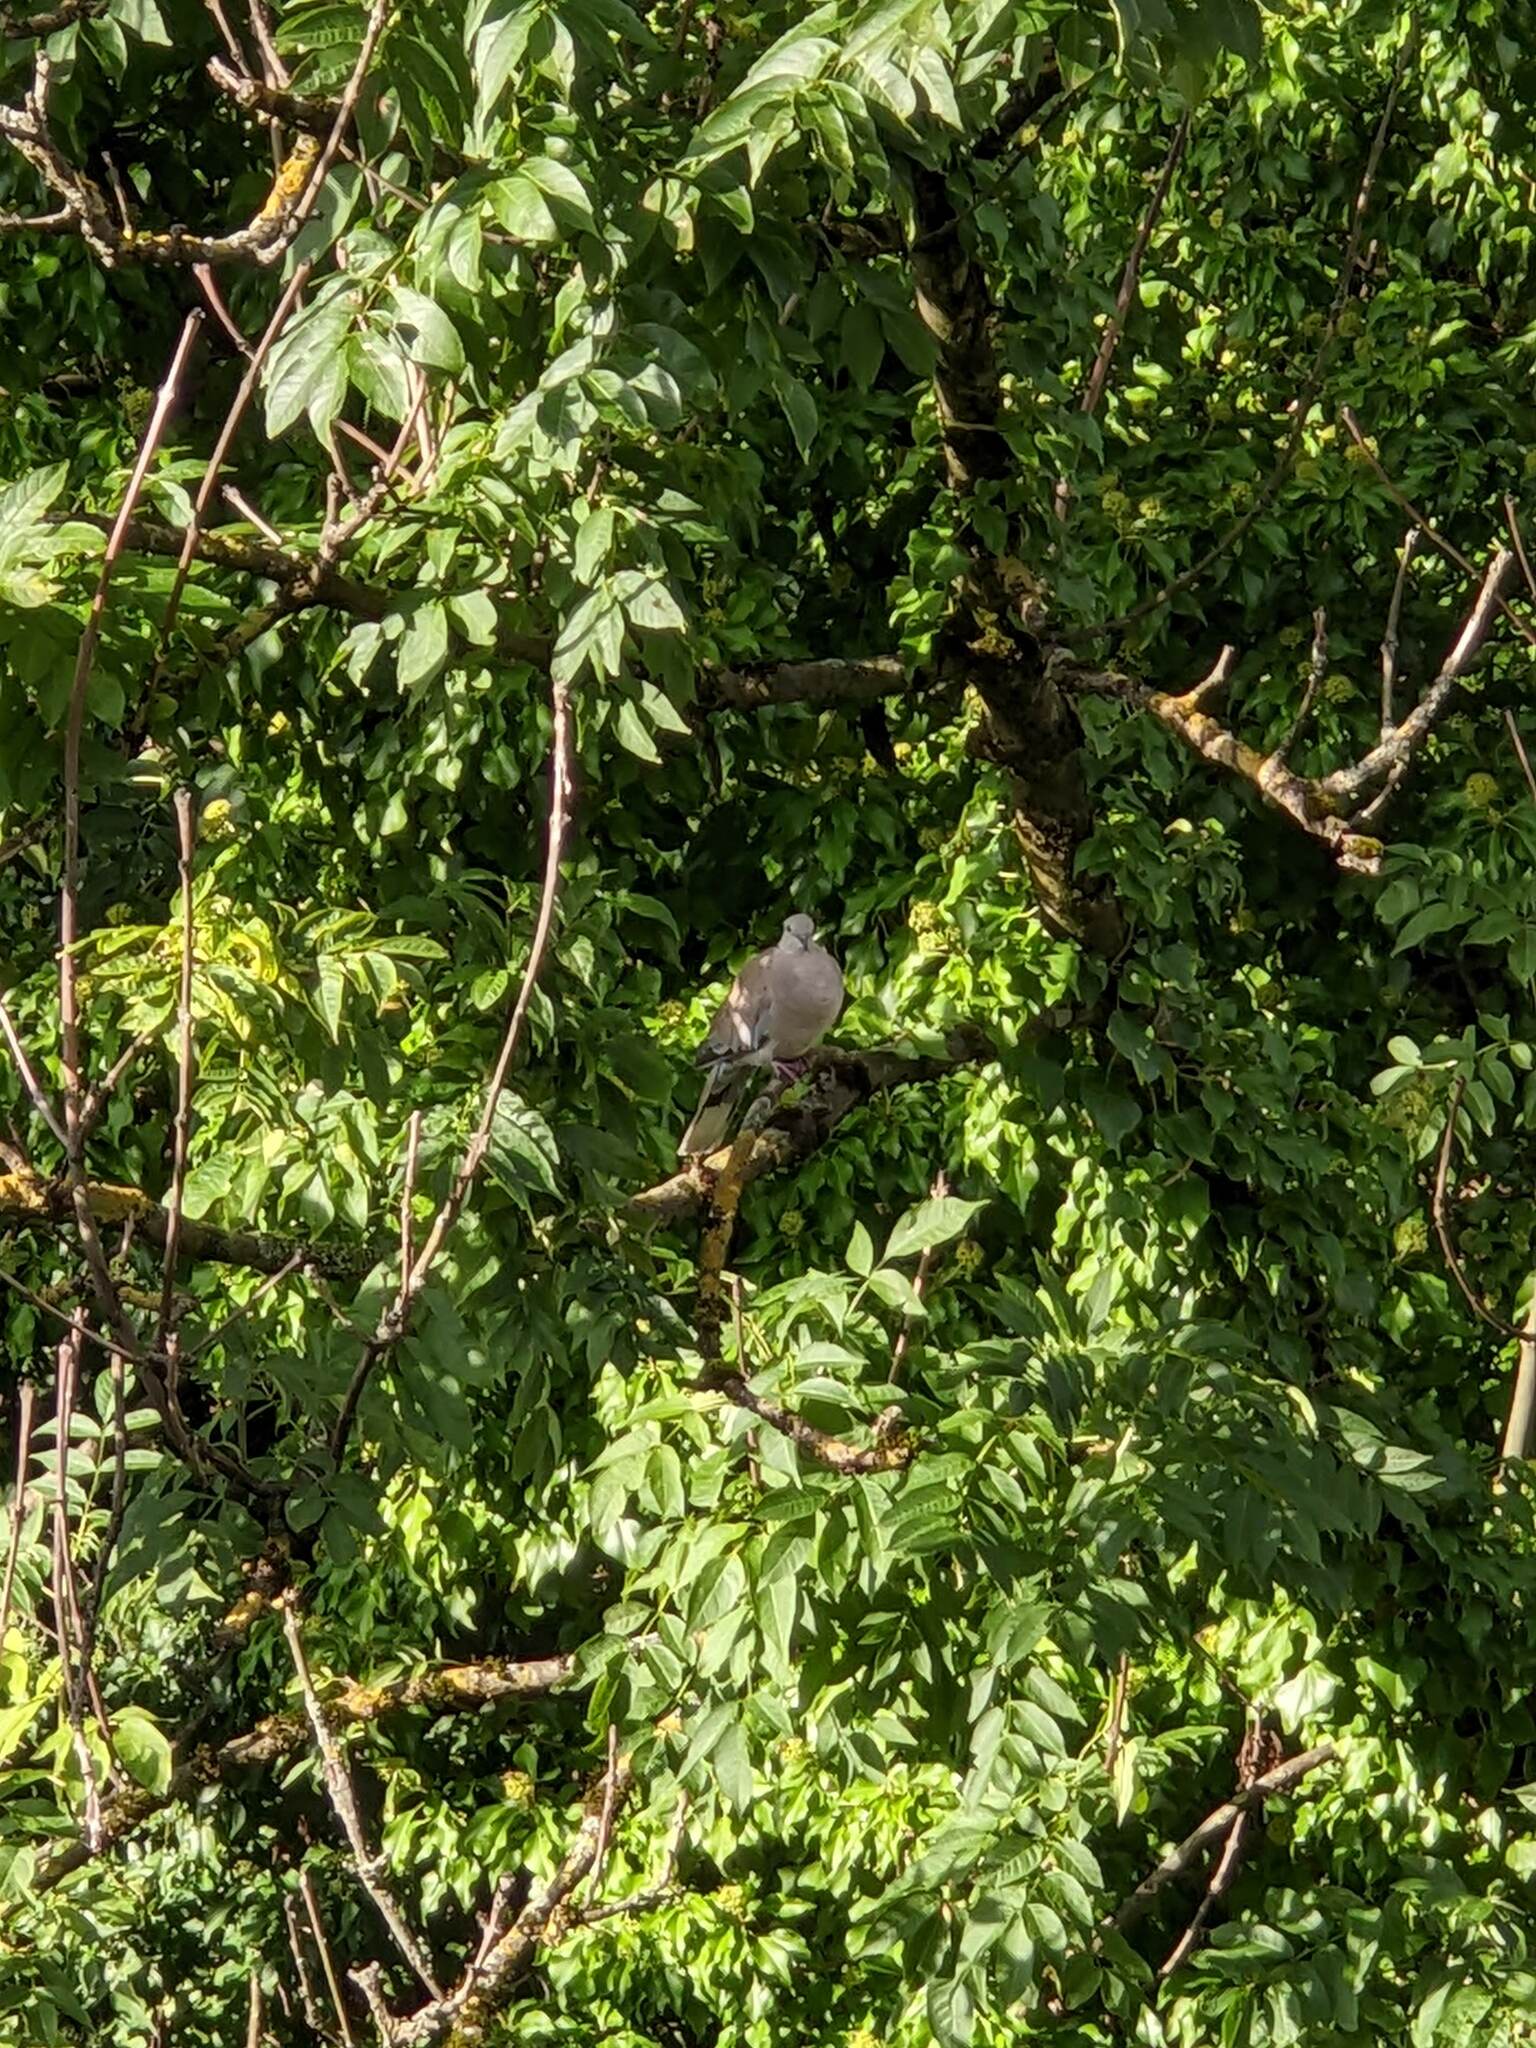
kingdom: Animalia
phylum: Chordata
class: Aves
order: Columbiformes
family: Columbidae
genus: Streptopelia
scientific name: Streptopelia decaocto
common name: Eurasian collared dove
